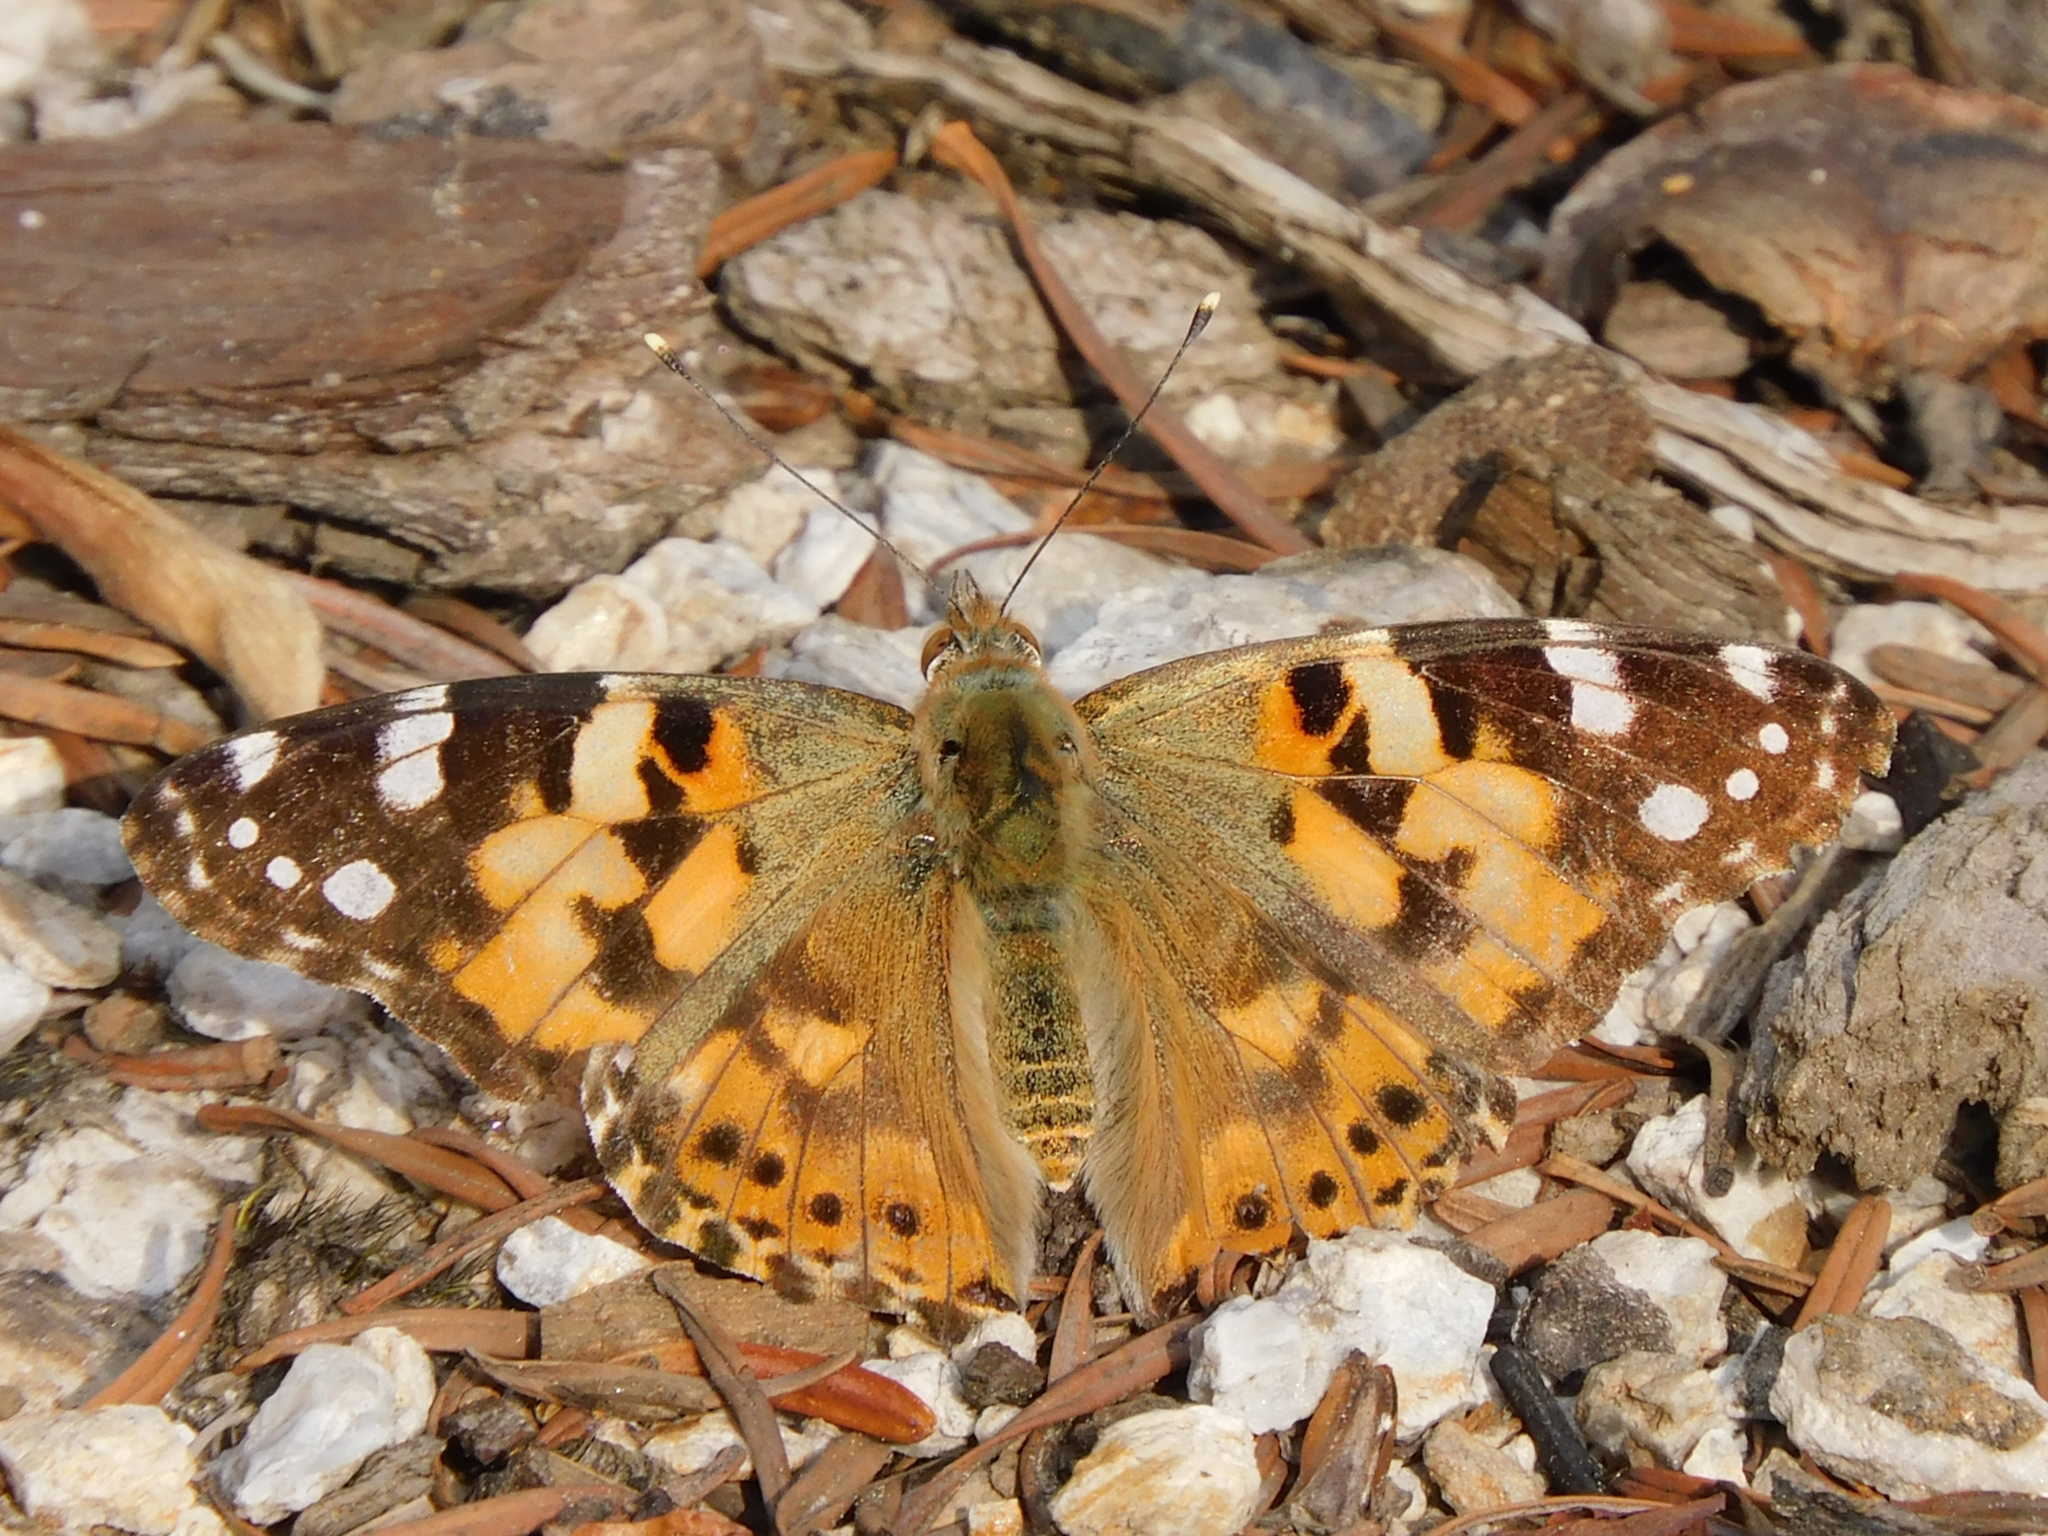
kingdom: Animalia
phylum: Arthropoda
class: Insecta
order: Lepidoptera
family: Nymphalidae
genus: Vanessa
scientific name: Vanessa cardui
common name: Painted lady
